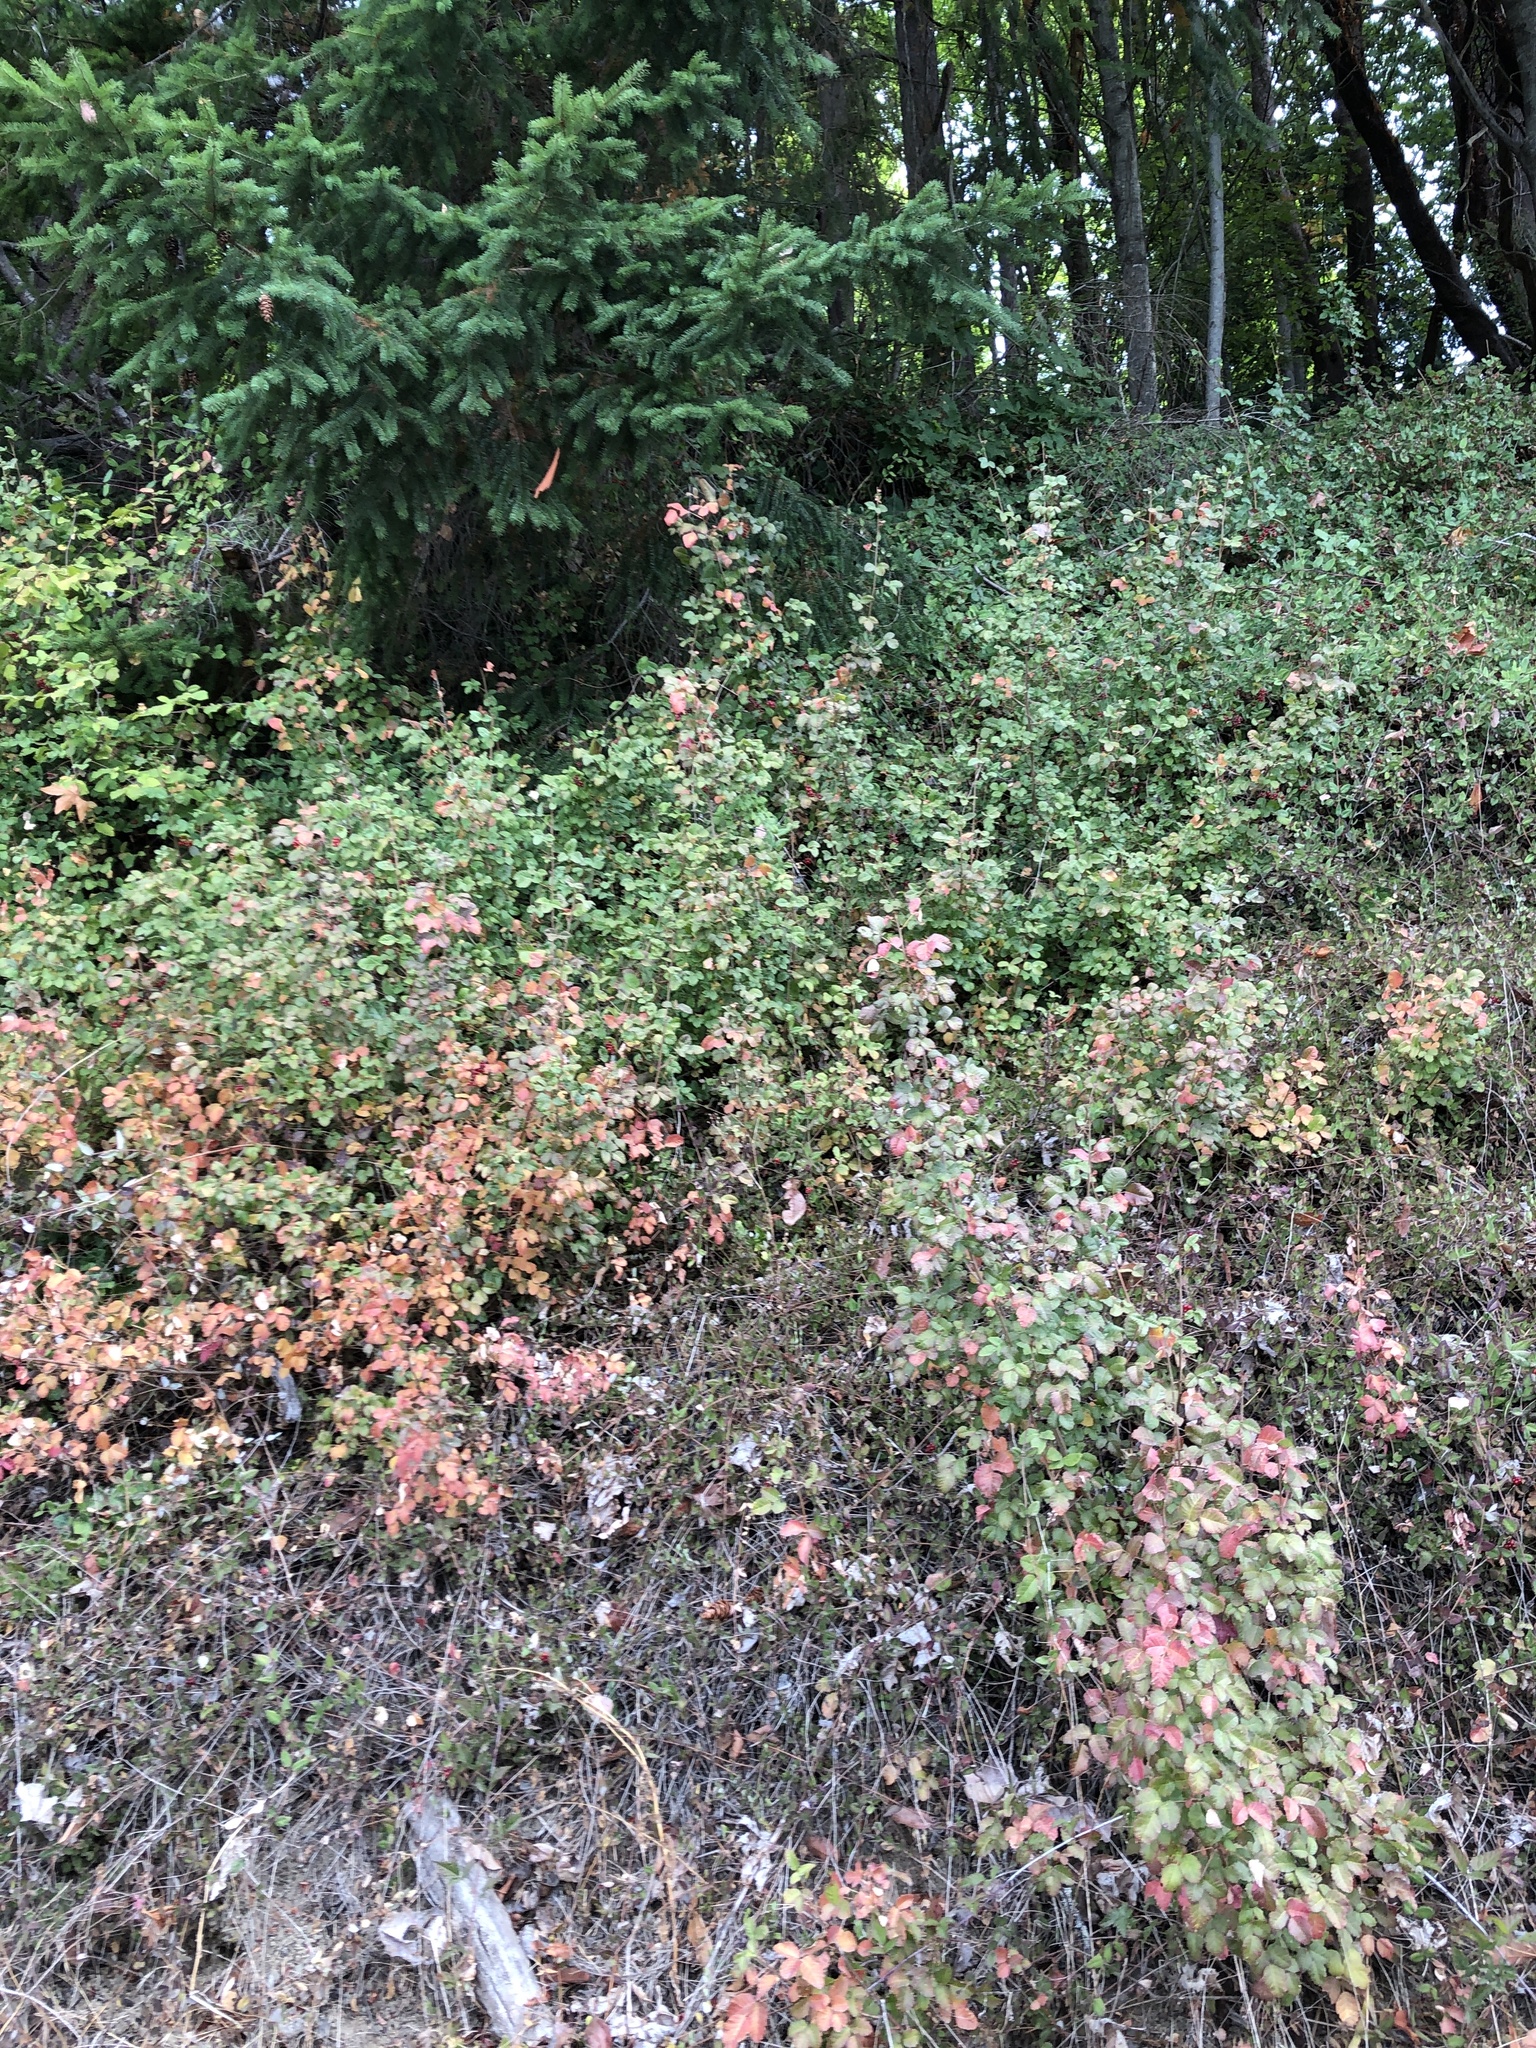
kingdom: Plantae
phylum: Tracheophyta
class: Magnoliopsida
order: Sapindales
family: Anacardiaceae
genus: Toxicodendron
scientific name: Toxicodendron diversilobum
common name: Pacific poison-oak
